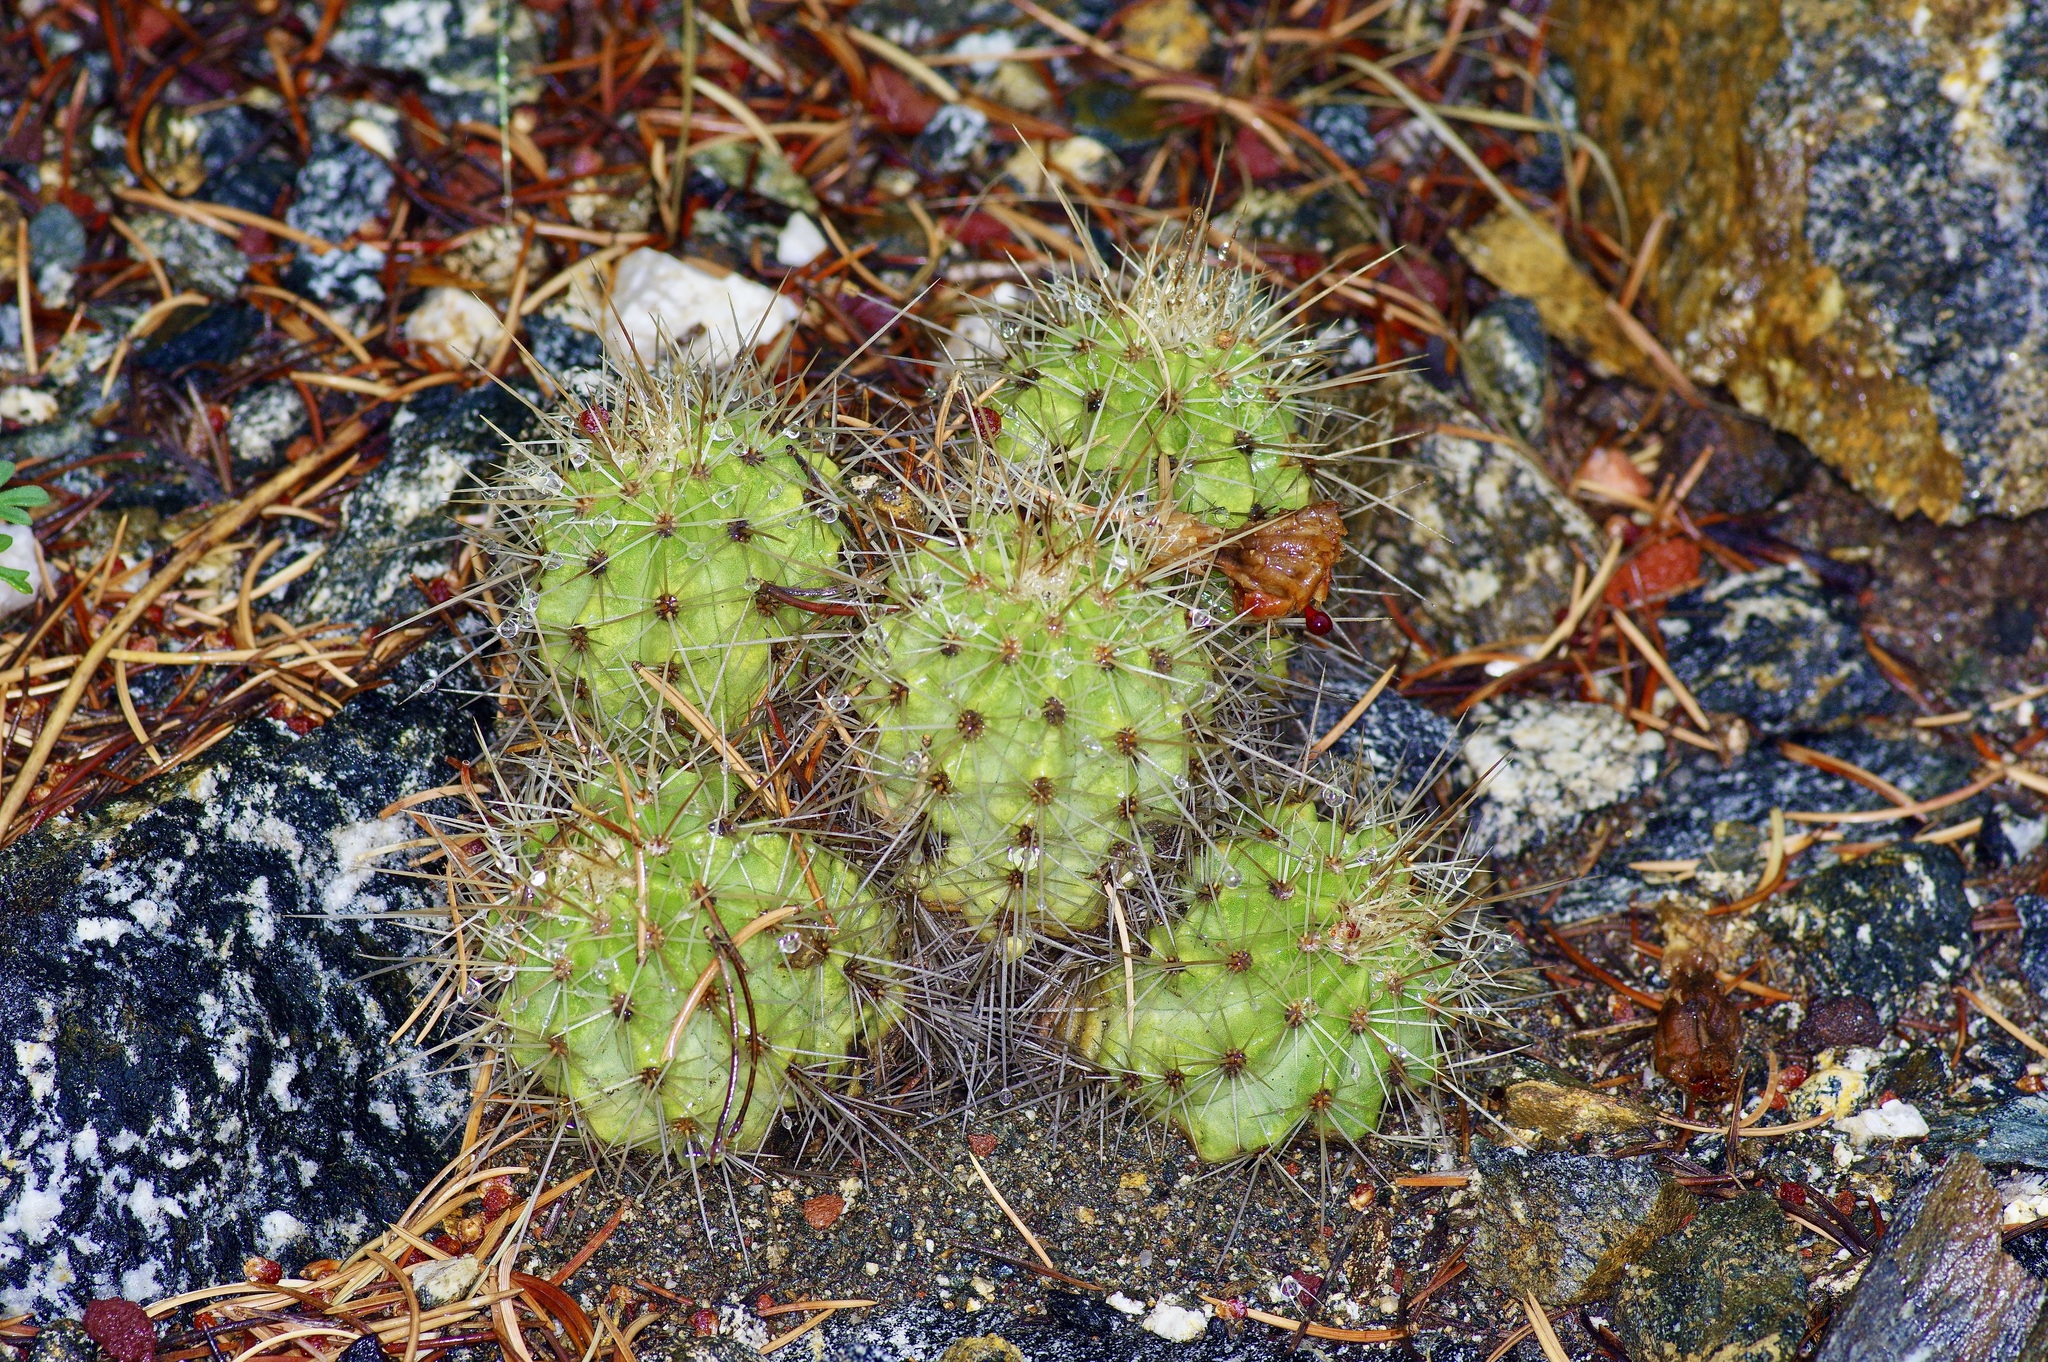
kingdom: Plantae
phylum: Tracheophyta
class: Magnoliopsida
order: Caryophyllales
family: Cactaceae
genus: Echinocereus
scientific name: Echinocereus coccineus
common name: Scarlet hedgehog cactus
